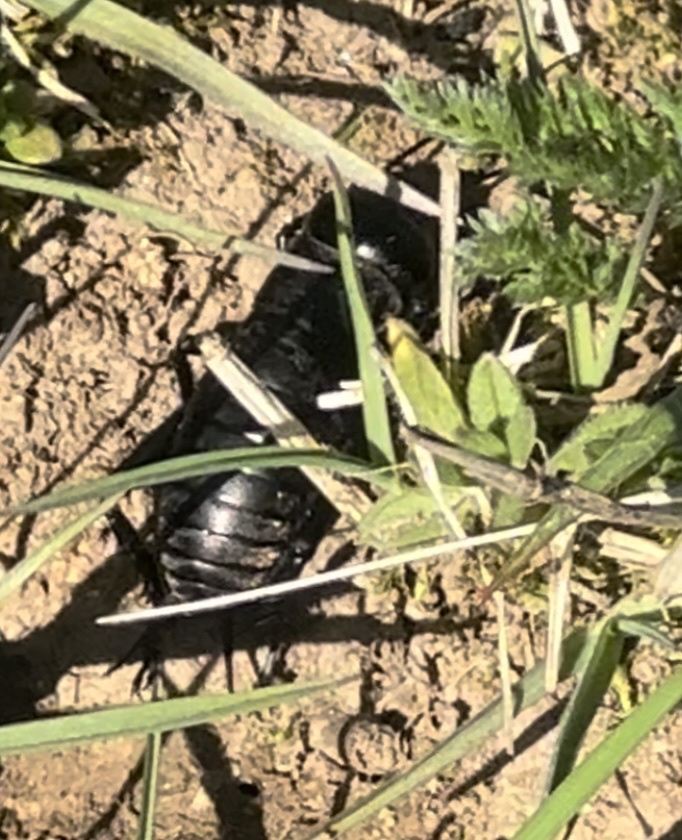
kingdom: Animalia
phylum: Arthropoda
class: Insecta
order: Orthoptera
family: Gryllidae
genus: Gryllus
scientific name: Gryllus campestris
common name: Field cricket
